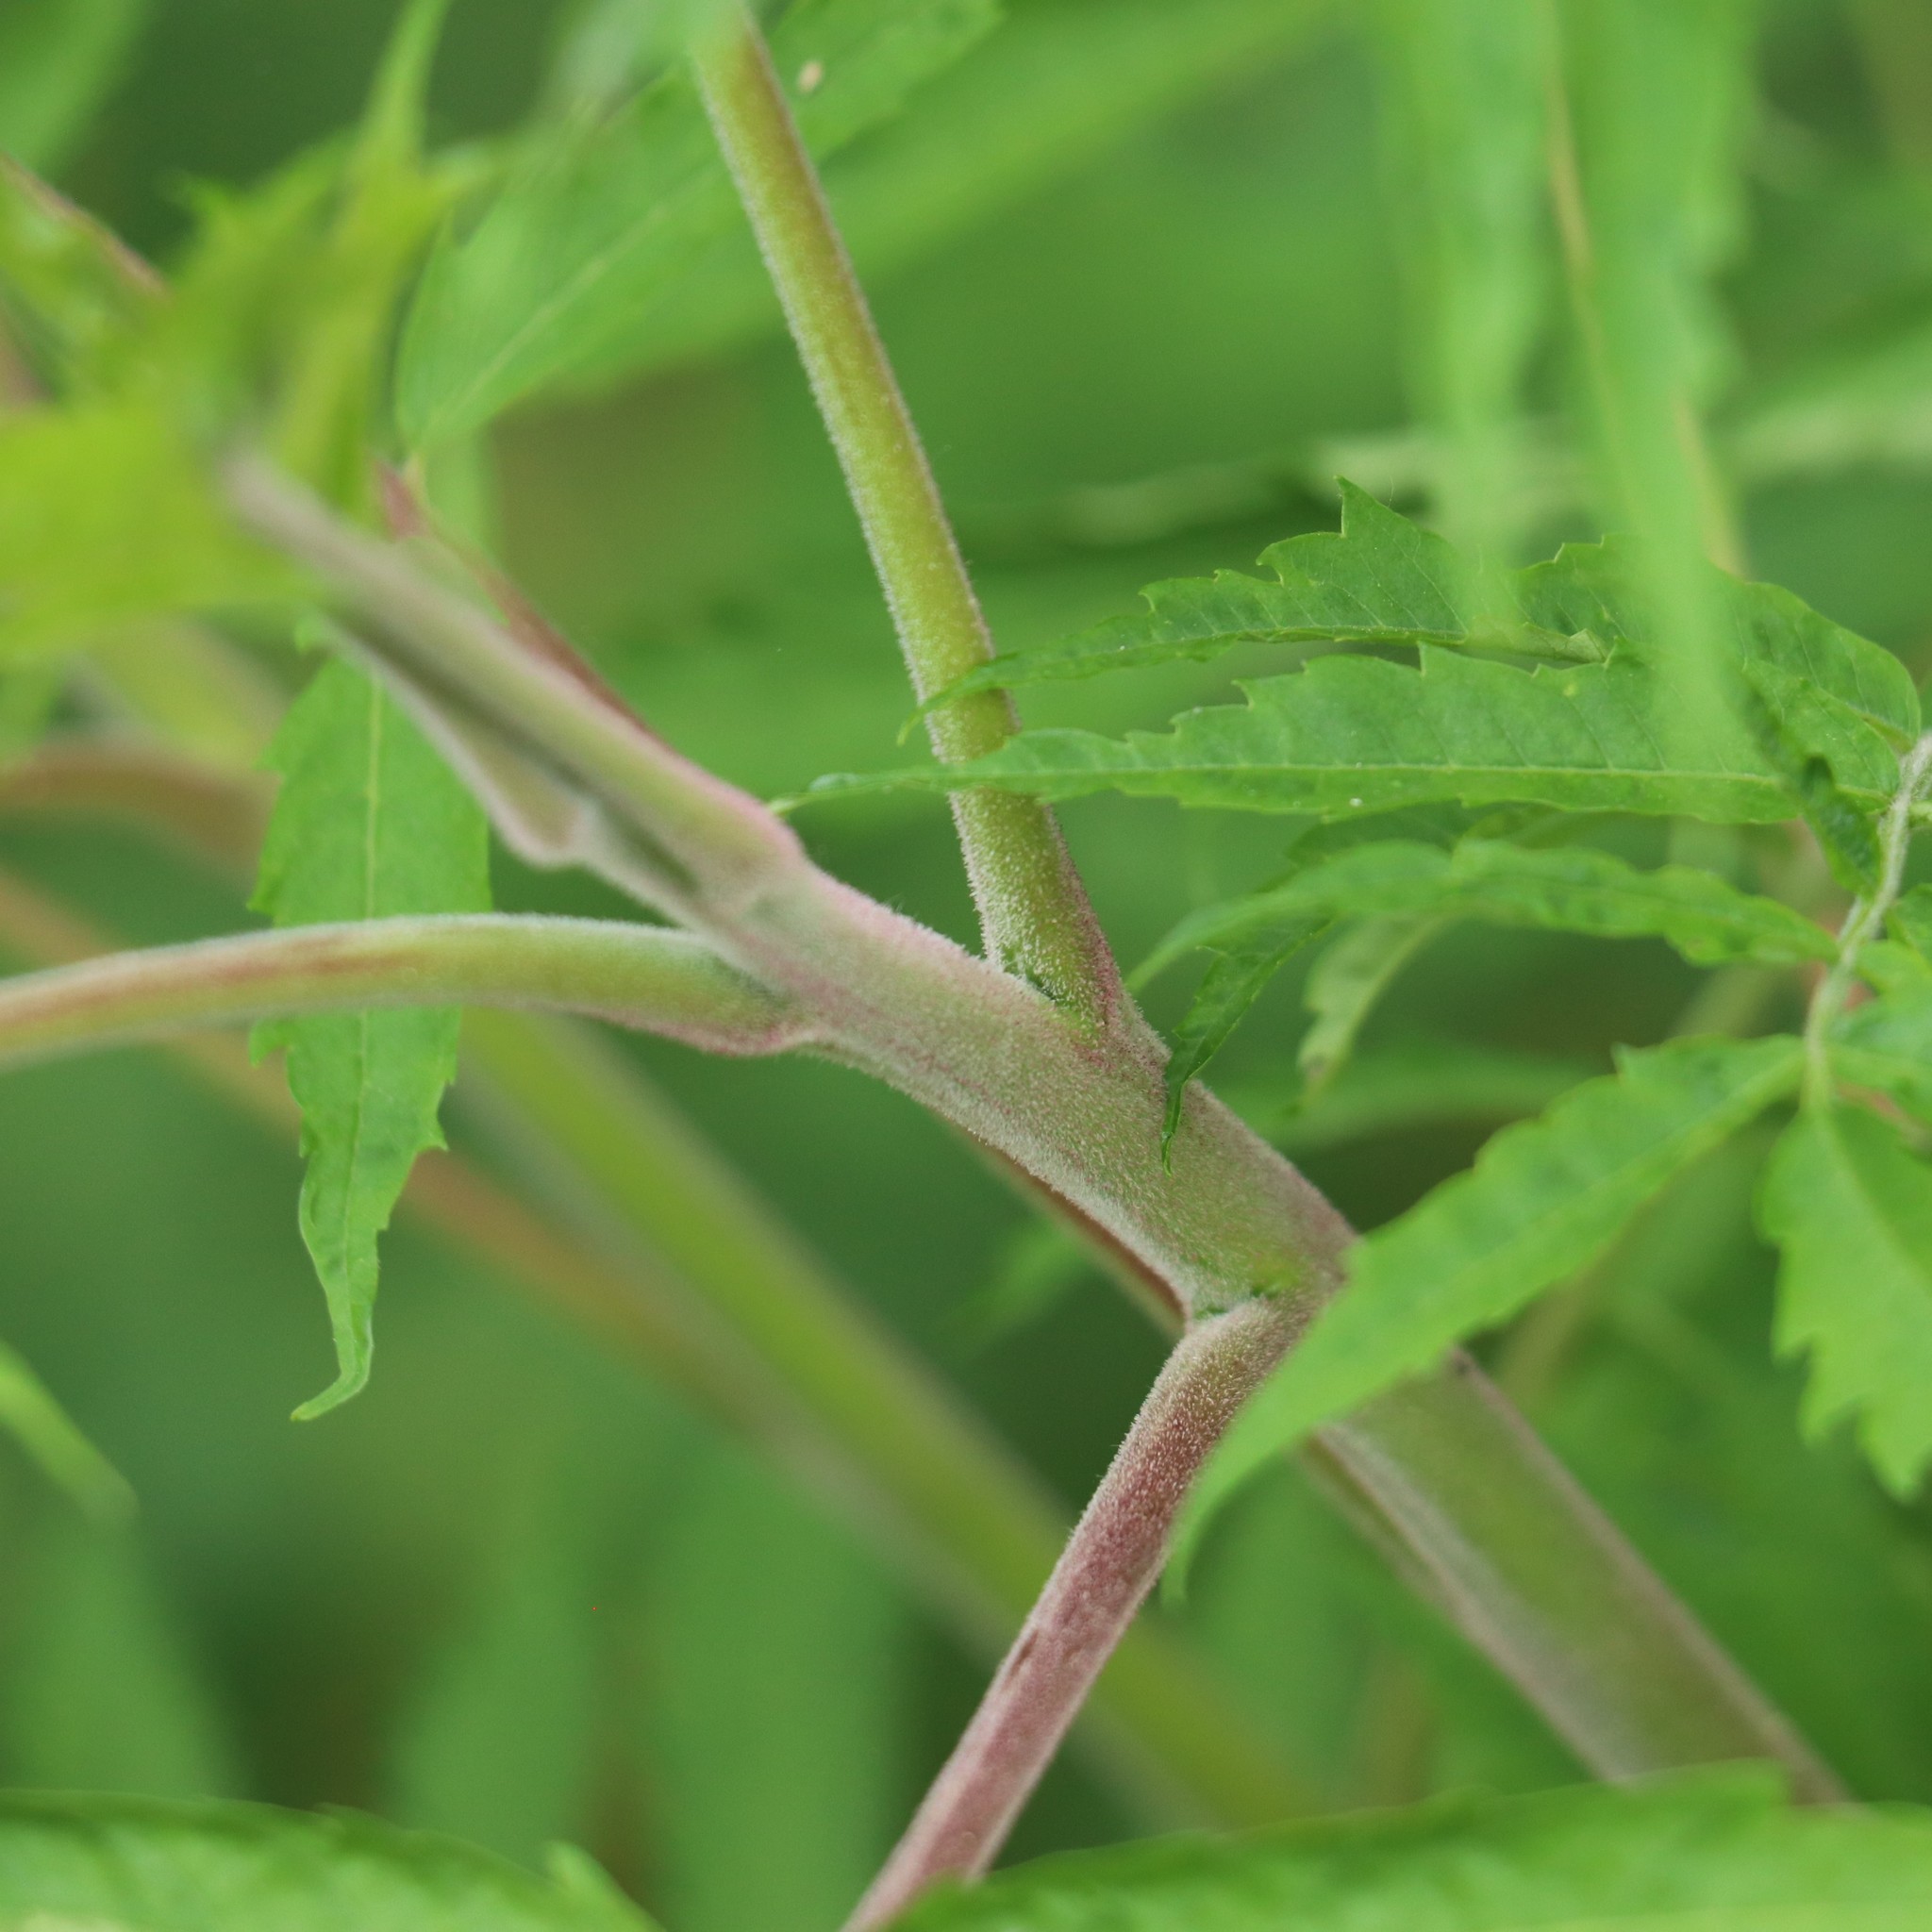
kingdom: Plantae
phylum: Tracheophyta
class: Magnoliopsida
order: Sapindales
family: Anacardiaceae
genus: Rhus
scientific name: Rhus typhina
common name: Staghorn sumac
